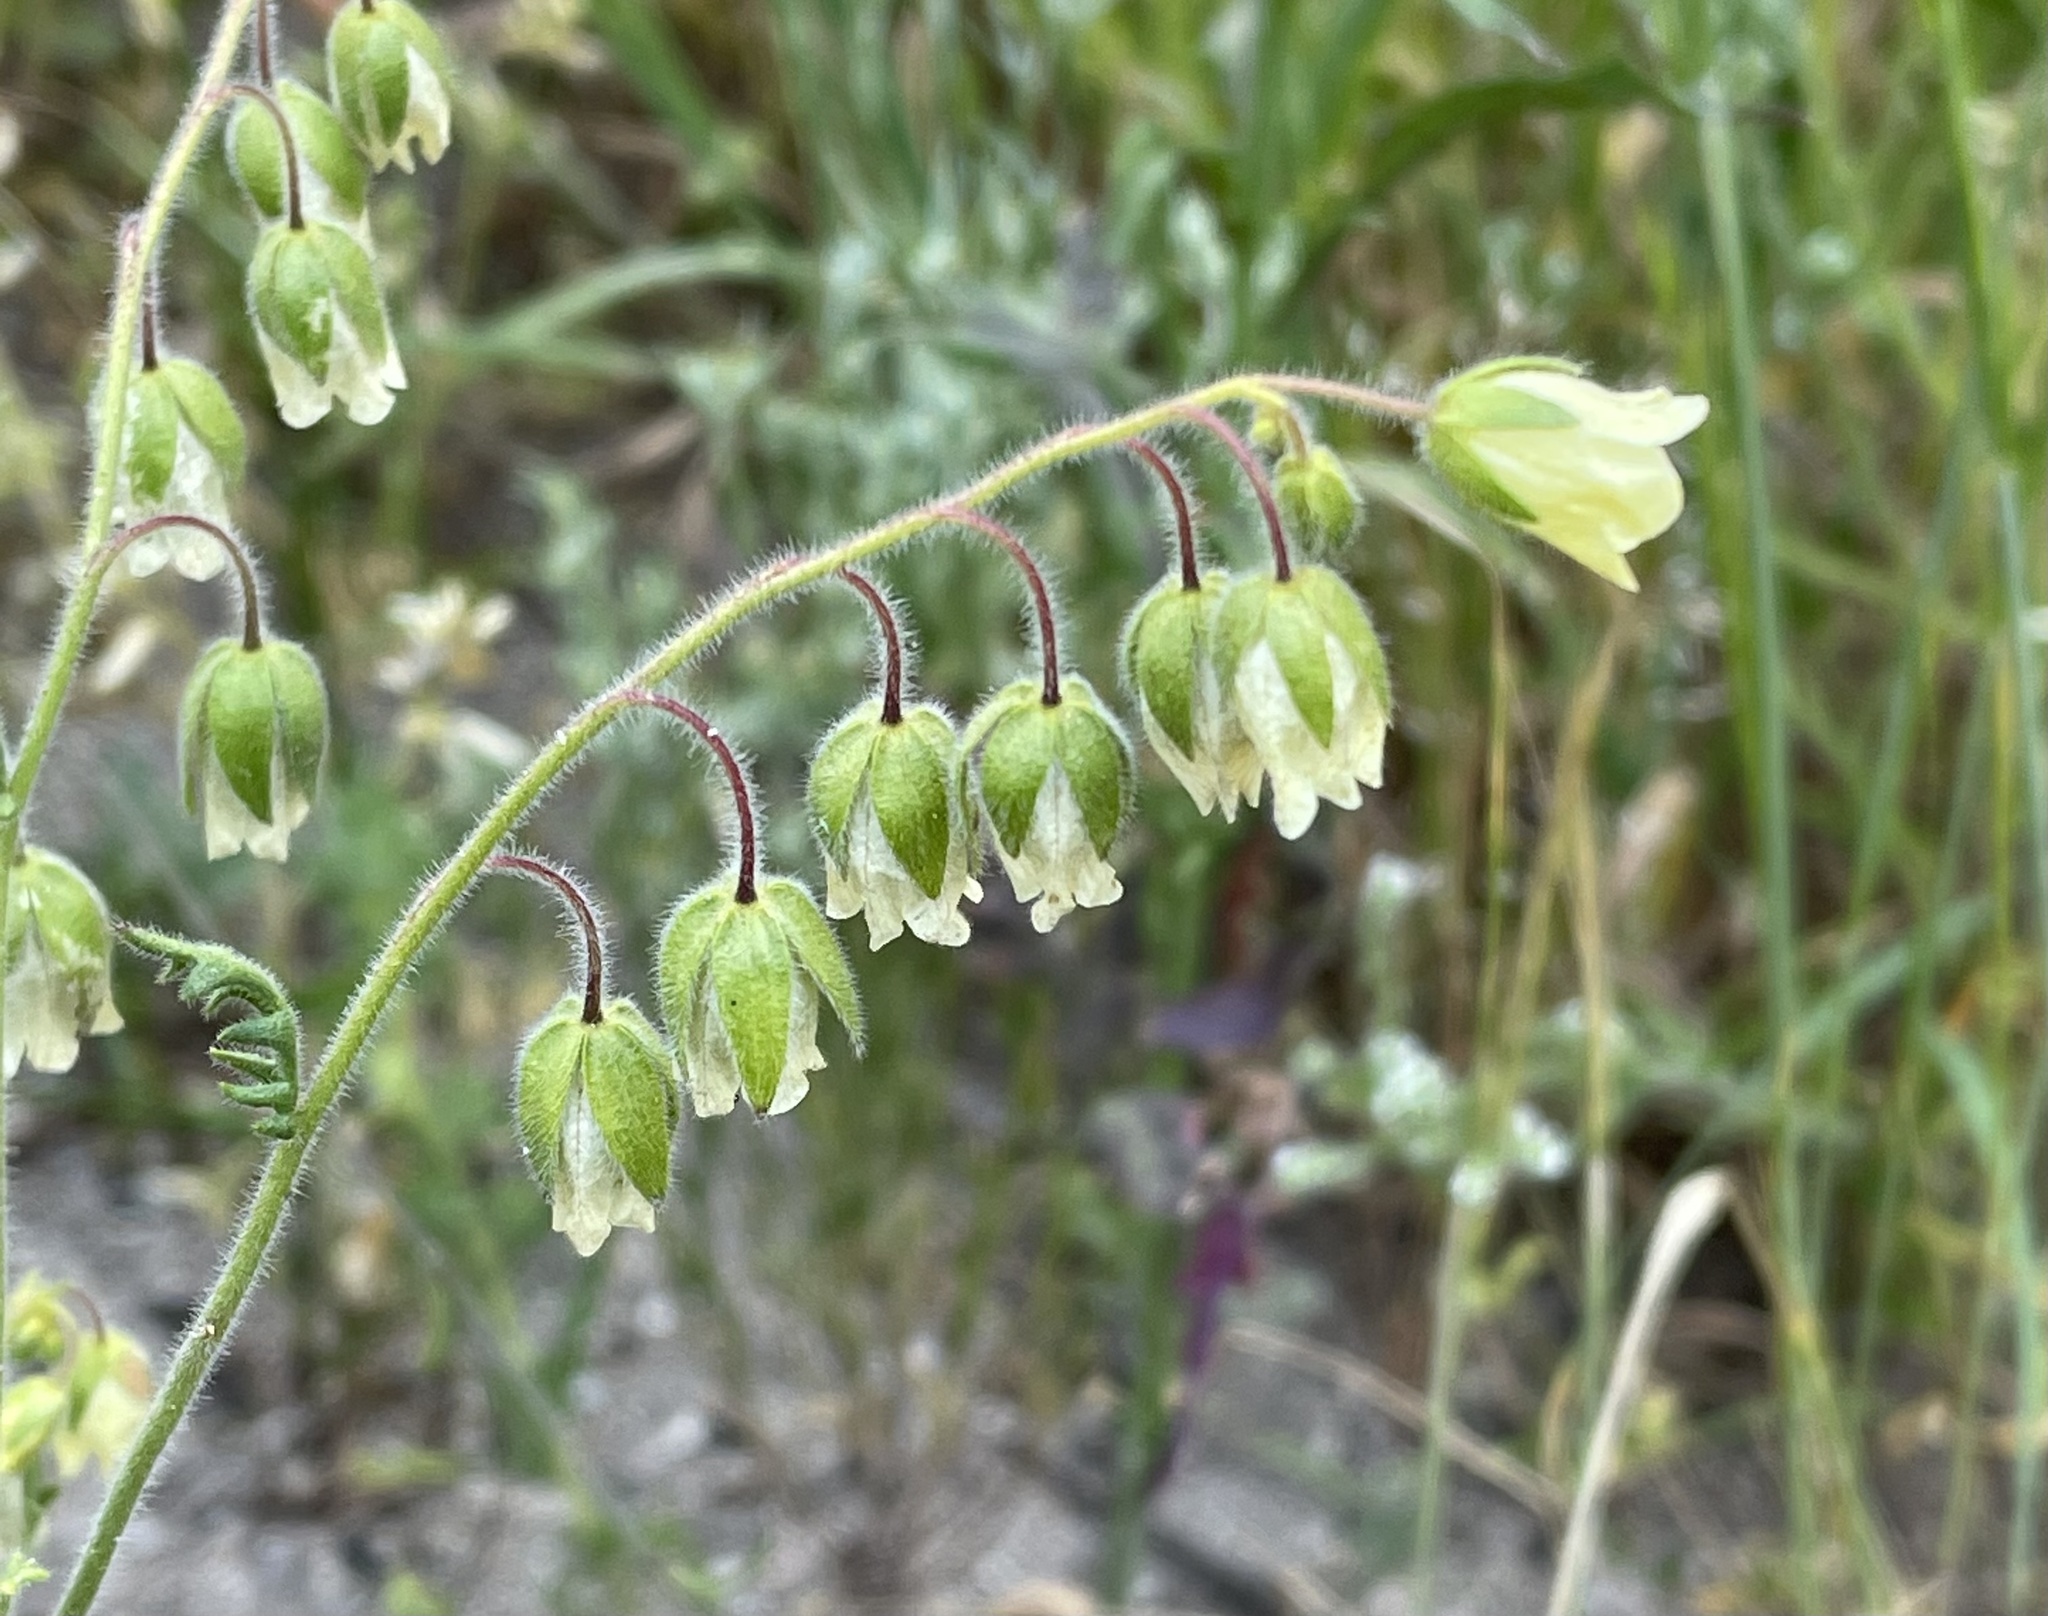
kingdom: Plantae
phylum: Tracheophyta
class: Magnoliopsida
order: Boraginales
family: Hydrophyllaceae
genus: Emmenanthe
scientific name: Emmenanthe penduliflora
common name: Whispering-bells
